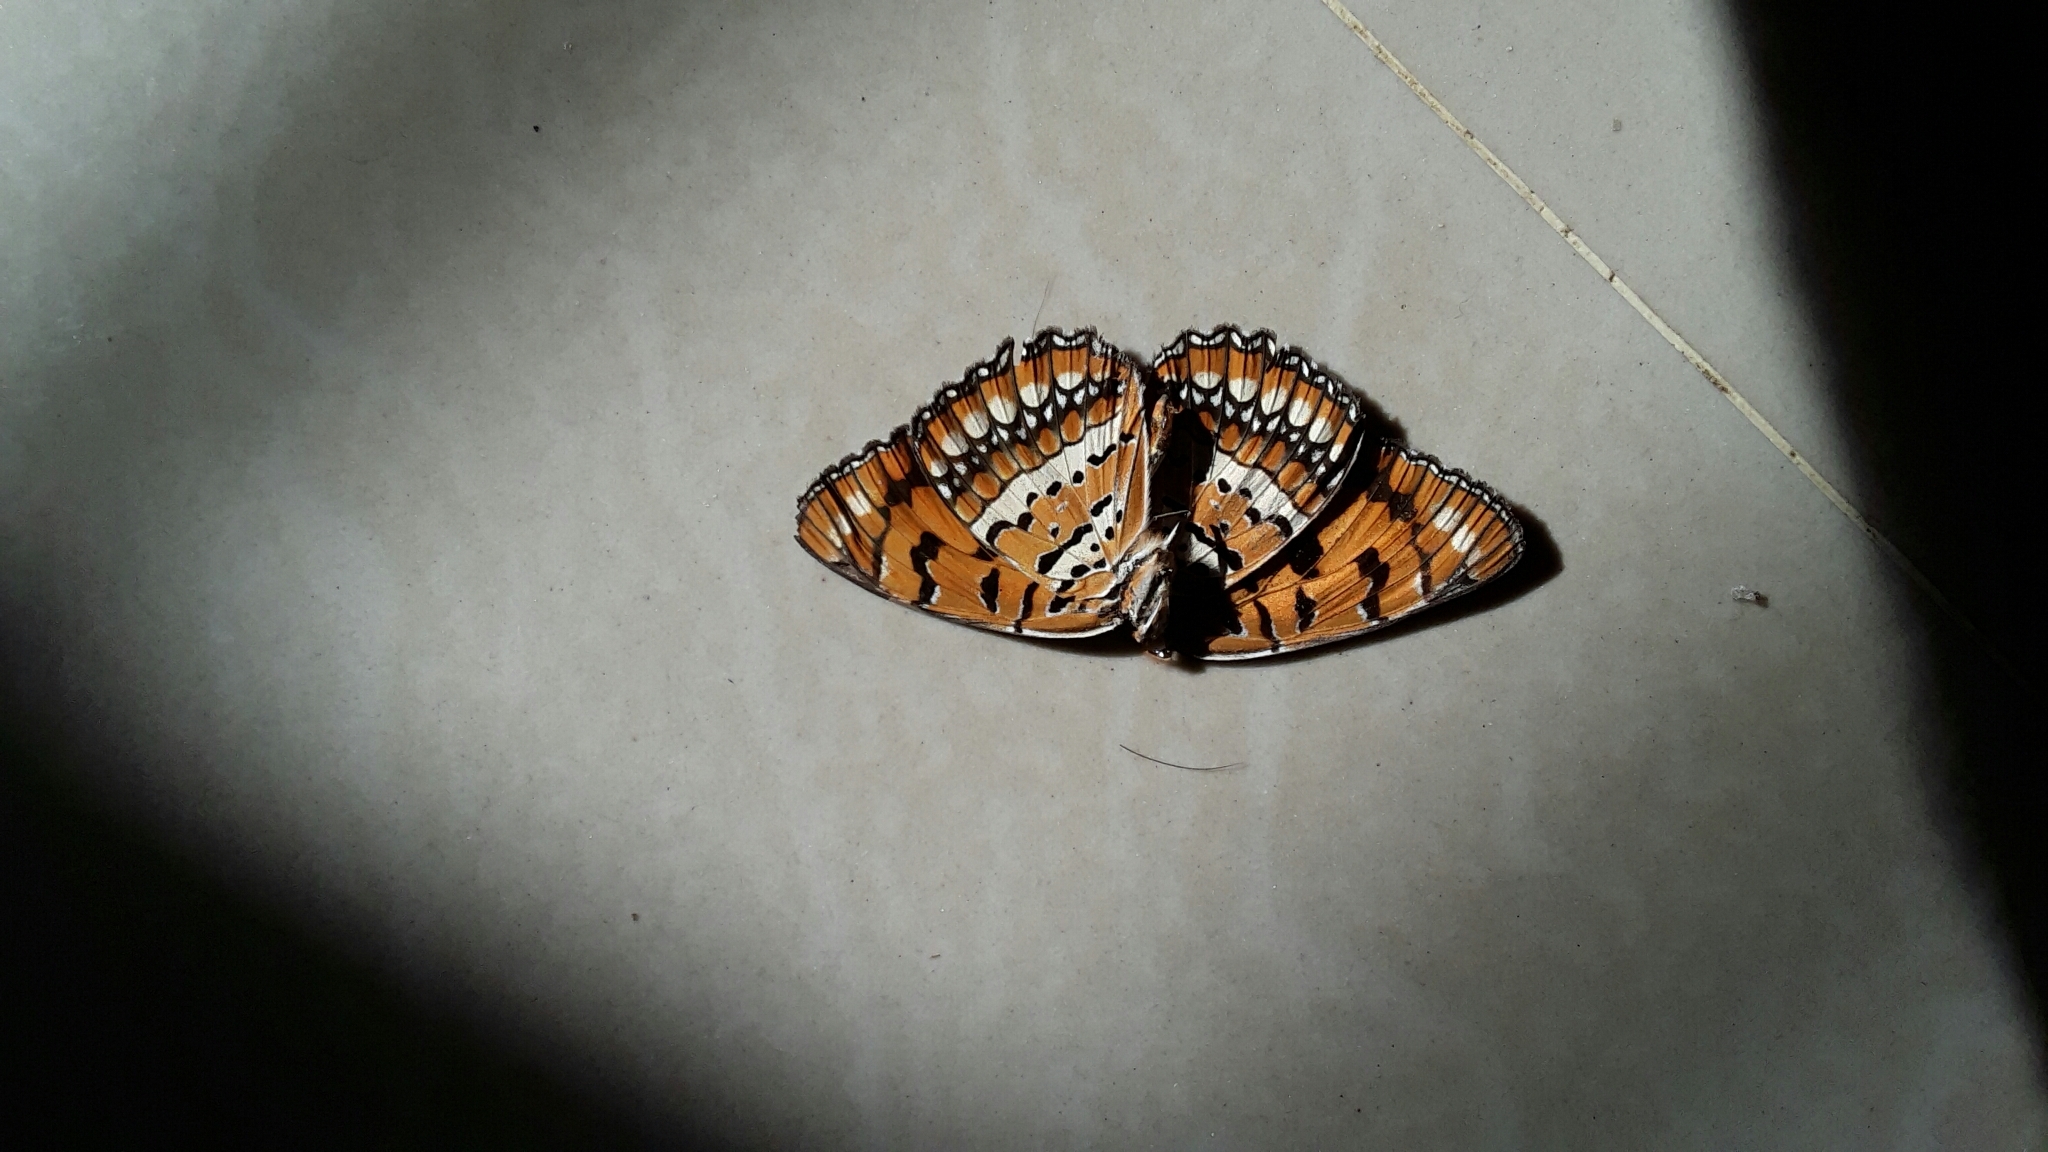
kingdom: Animalia
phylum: Arthropoda
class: Insecta
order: Lepidoptera
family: Nymphalidae
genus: Byblia
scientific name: Byblia ilithyia
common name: Spotted joker
